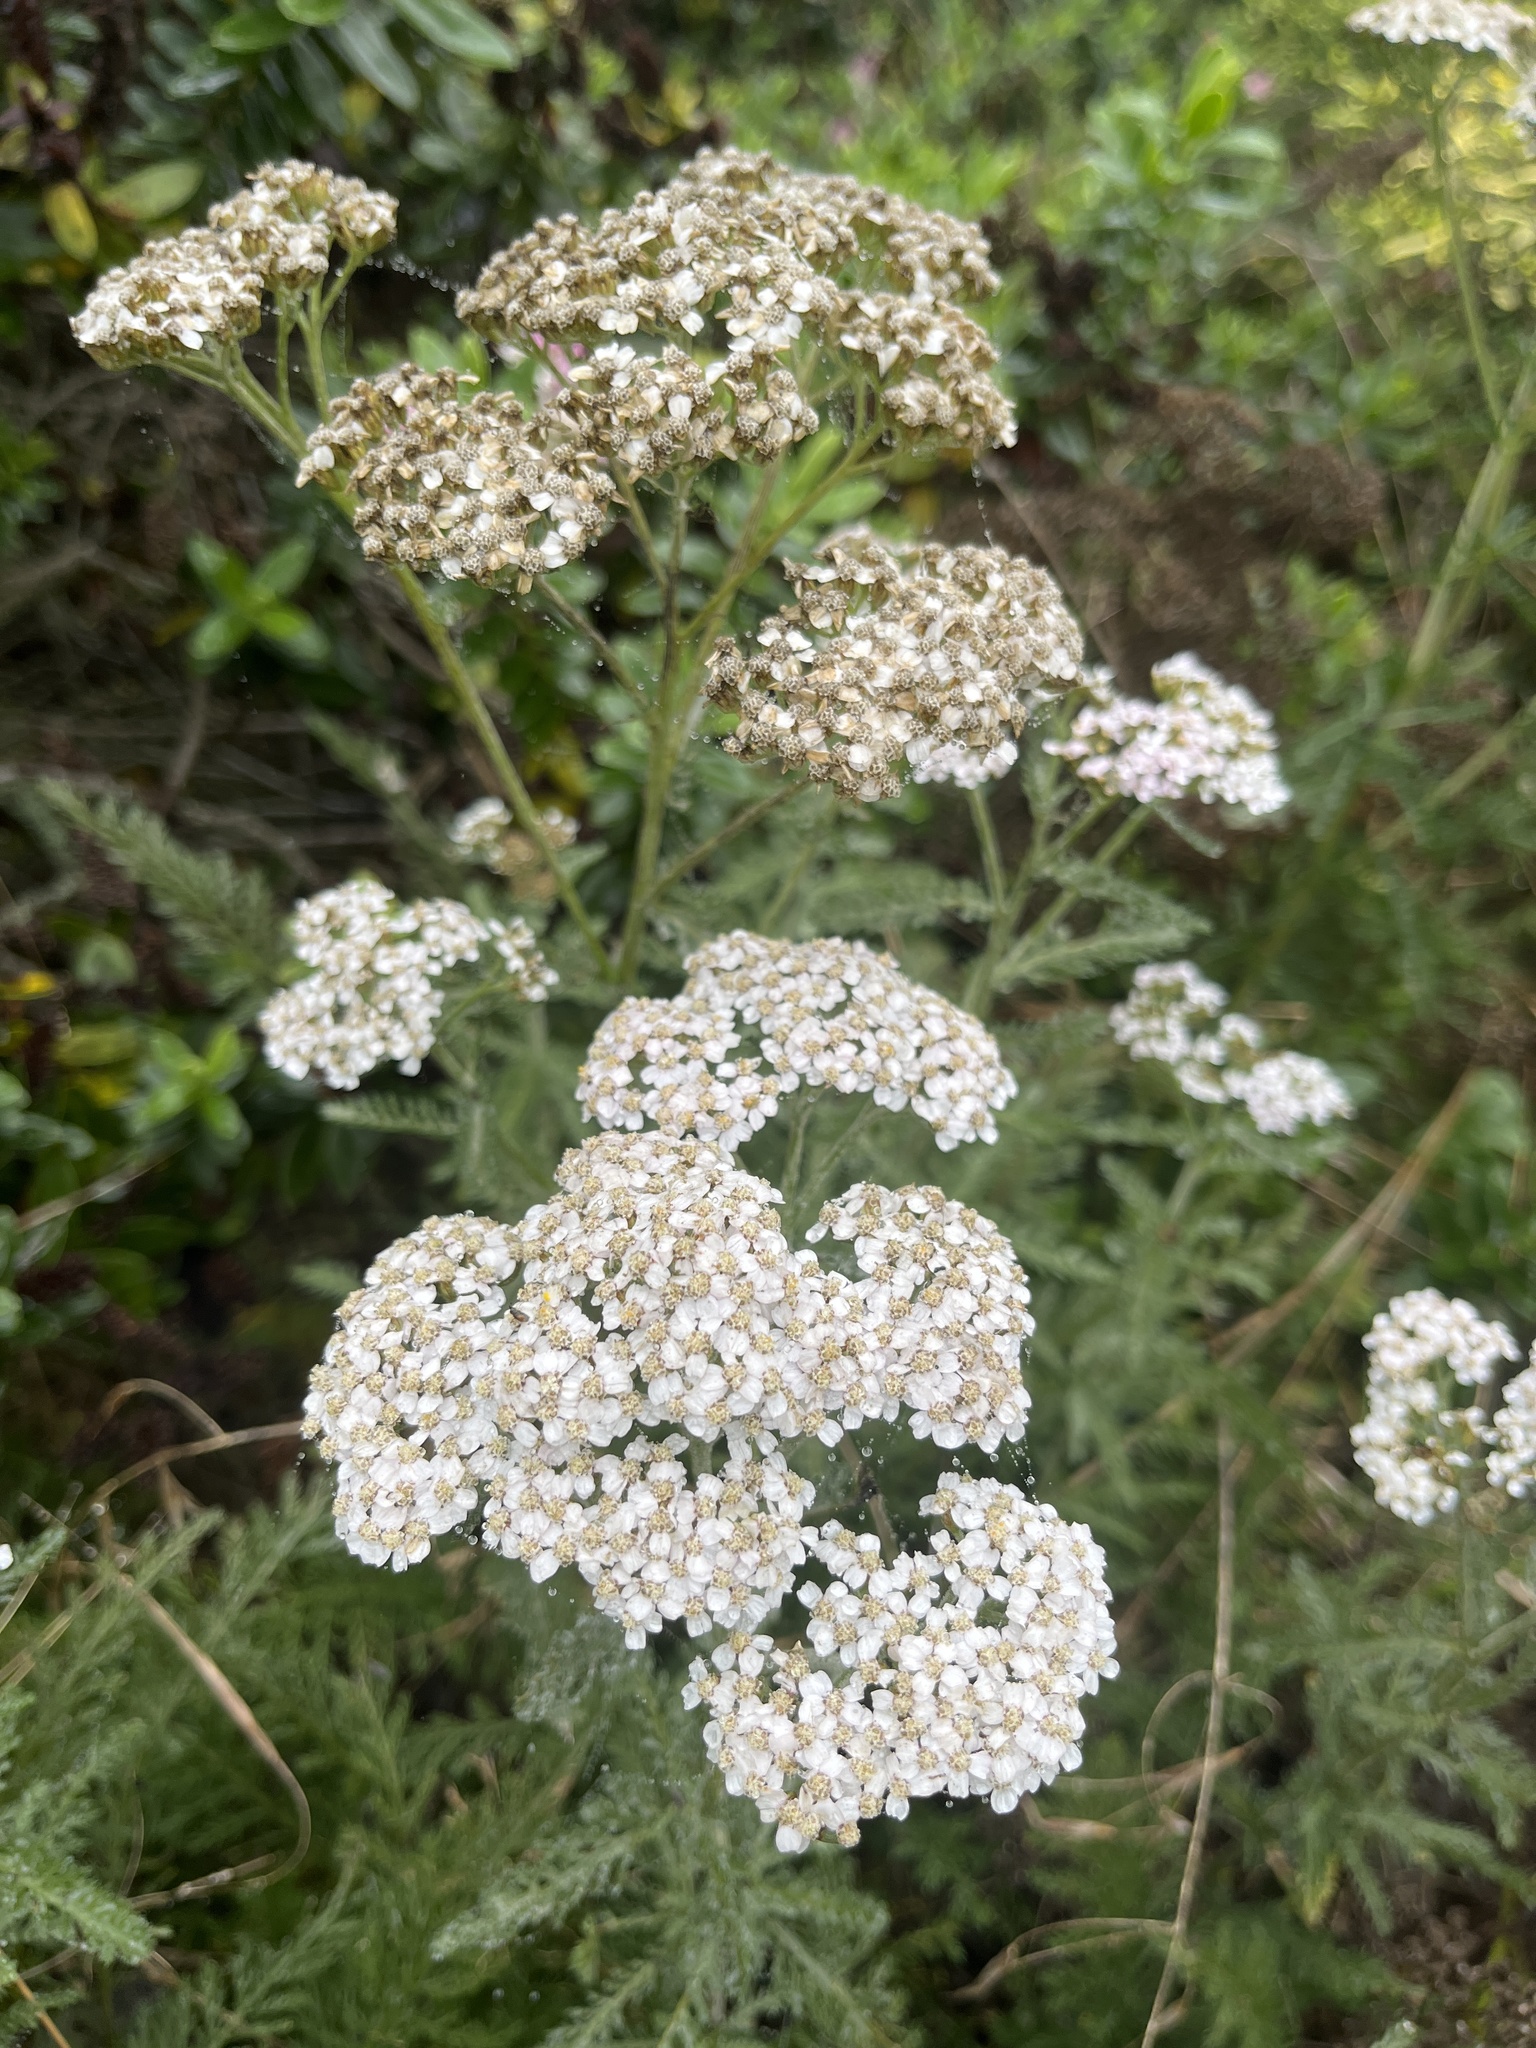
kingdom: Plantae
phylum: Tracheophyta
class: Magnoliopsida
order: Asterales
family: Asteraceae
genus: Achillea
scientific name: Achillea millefolium
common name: Yarrow
